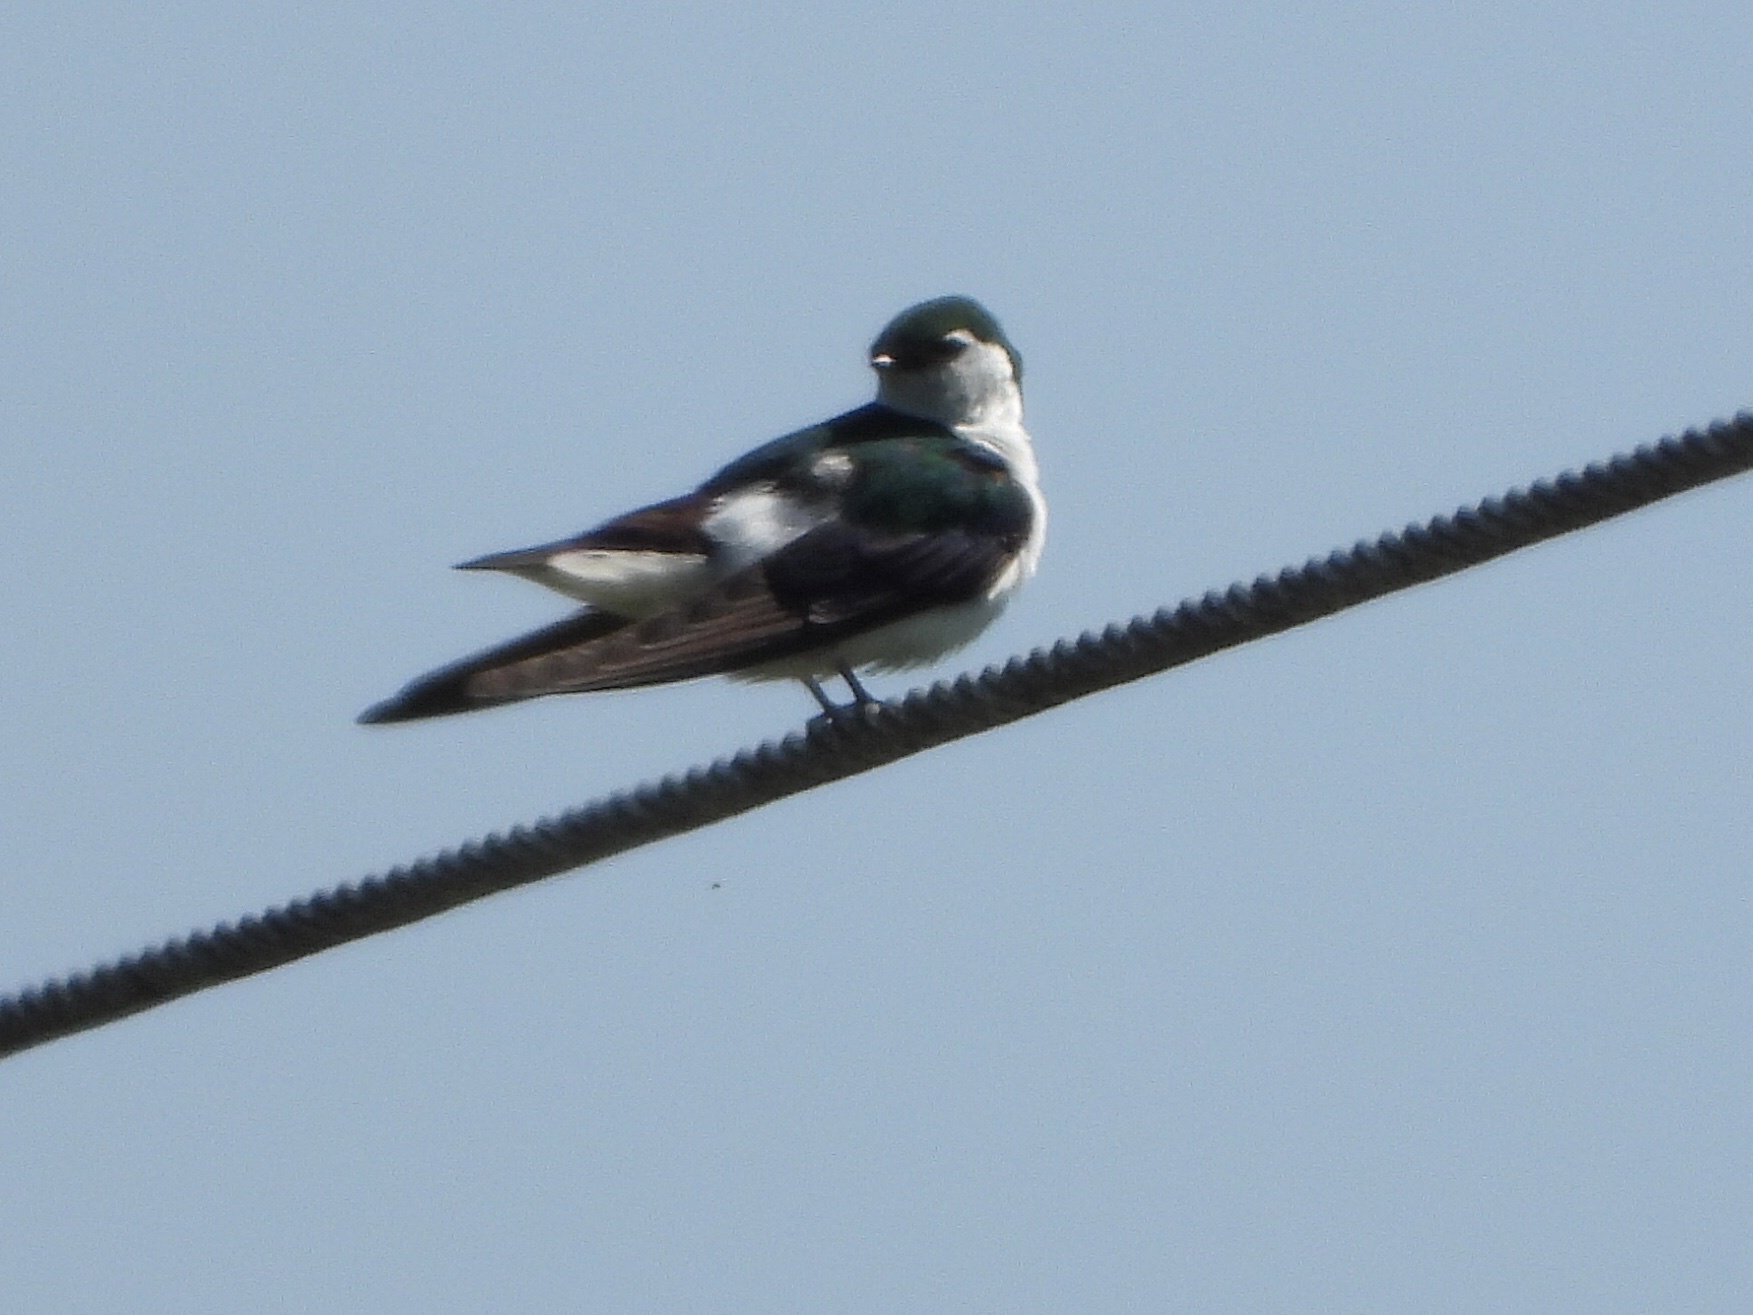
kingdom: Animalia
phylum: Chordata
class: Aves
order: Passeriformes
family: Hirundinidae
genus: Tachycineta
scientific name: Tachycineta thalassina
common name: Violet-green swallow
